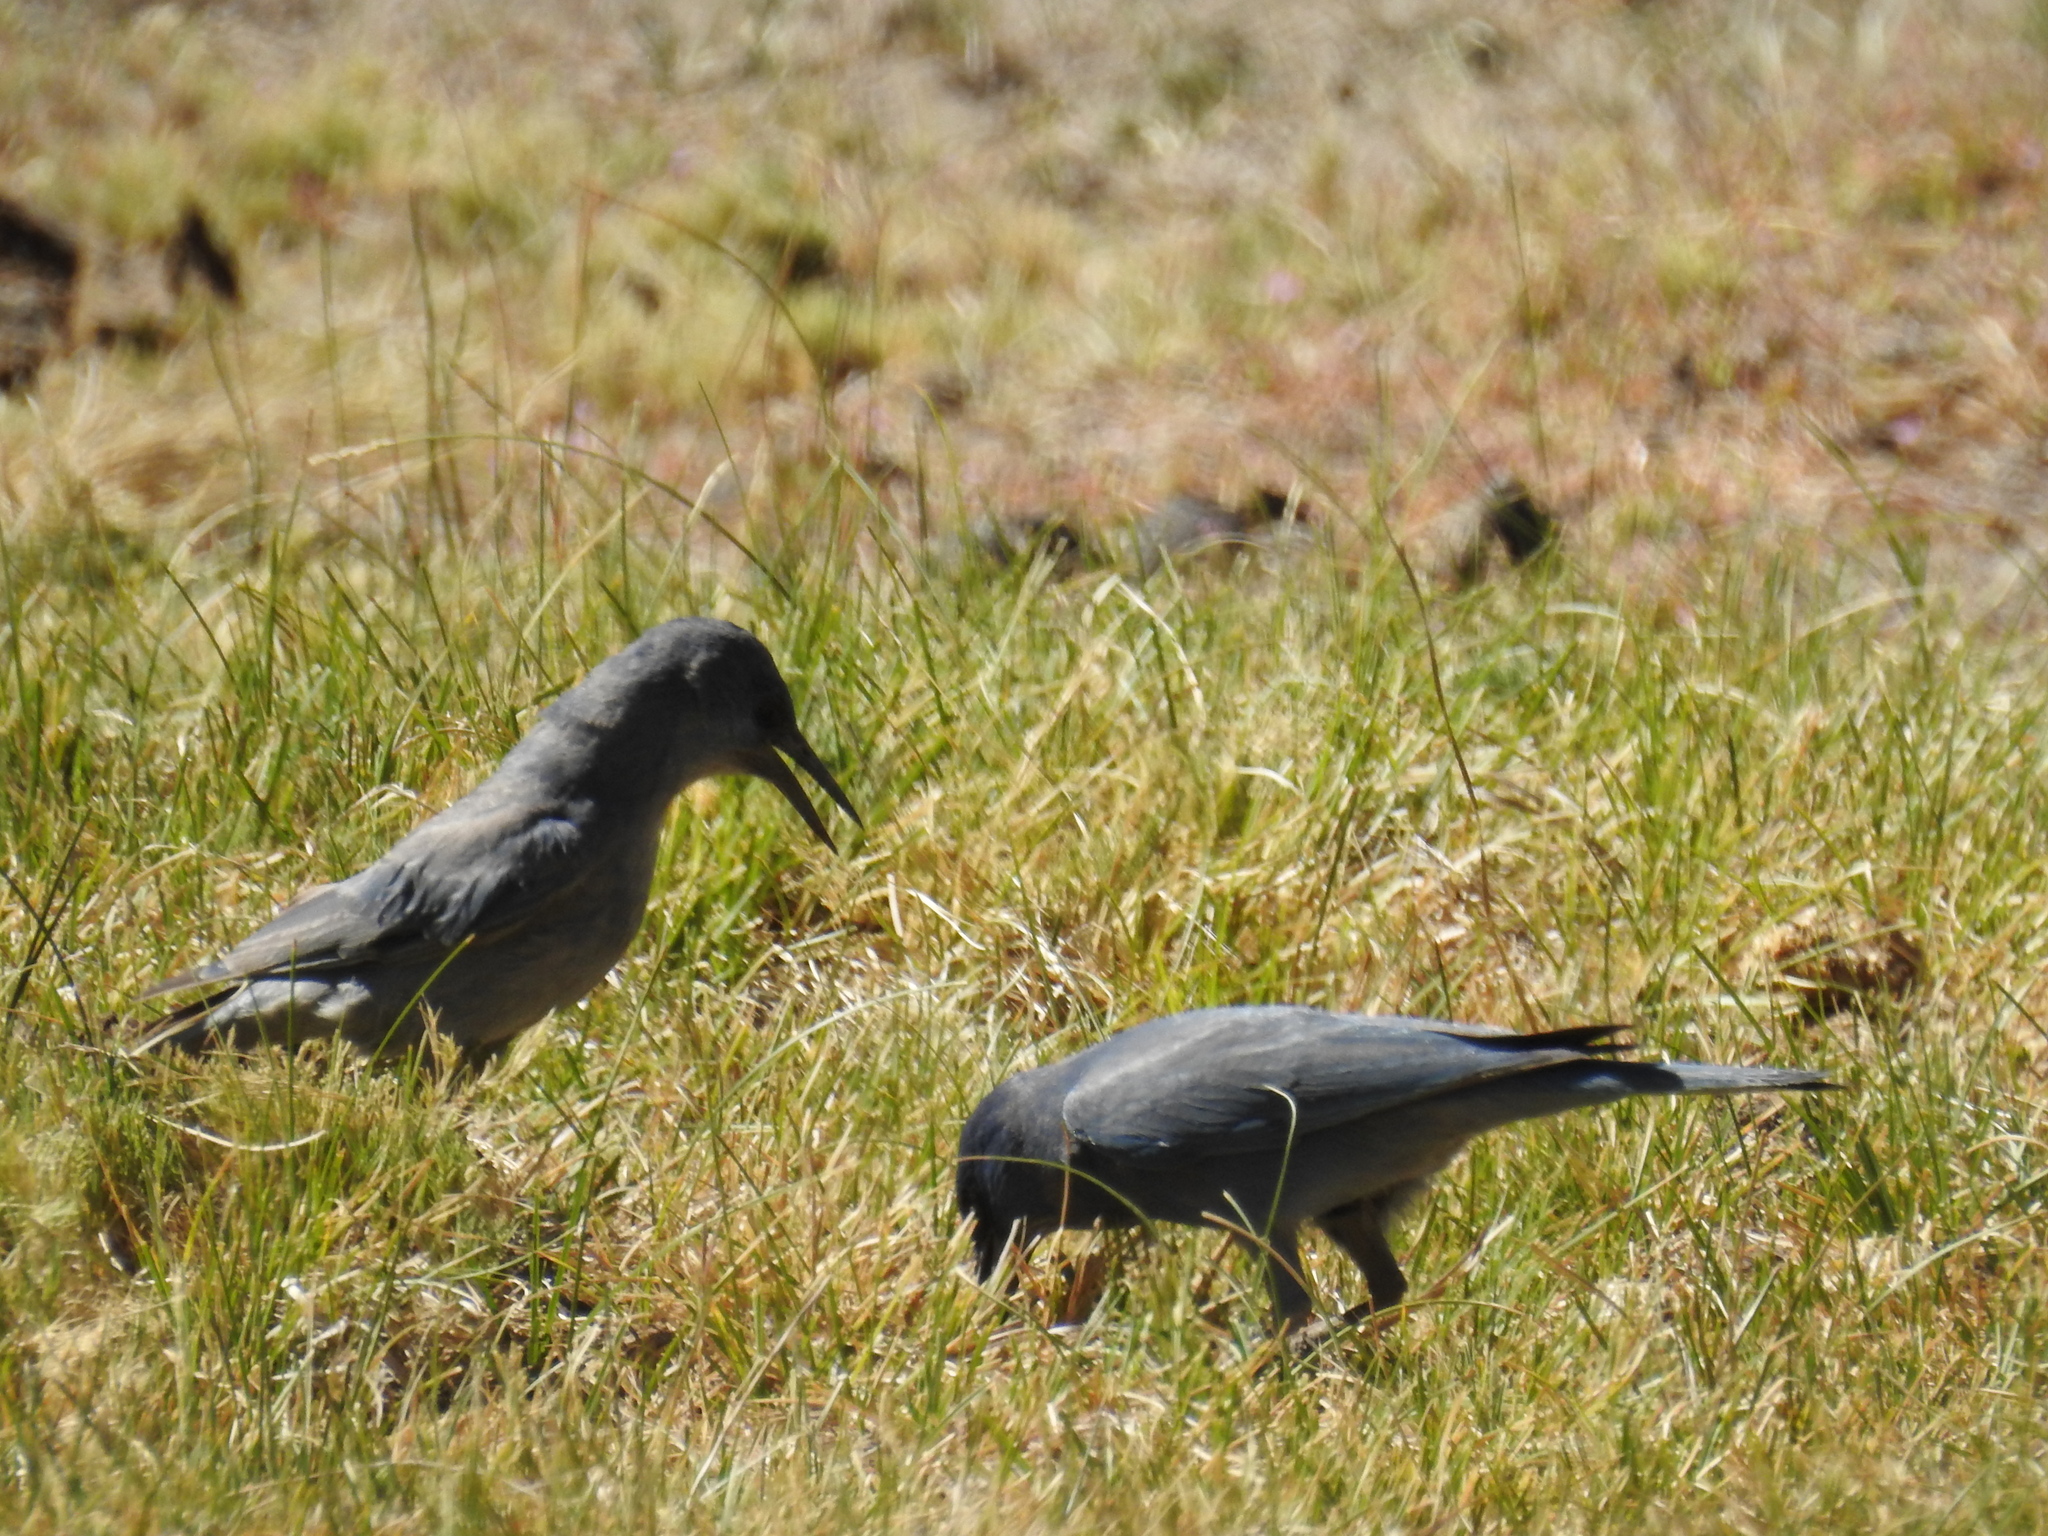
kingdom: Animalia
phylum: Chordata
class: Aves
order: Passeriformes
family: Corvidae
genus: Gymnorhinus
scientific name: Gymnorhinus cyanocephalus
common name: Pinyon jay
